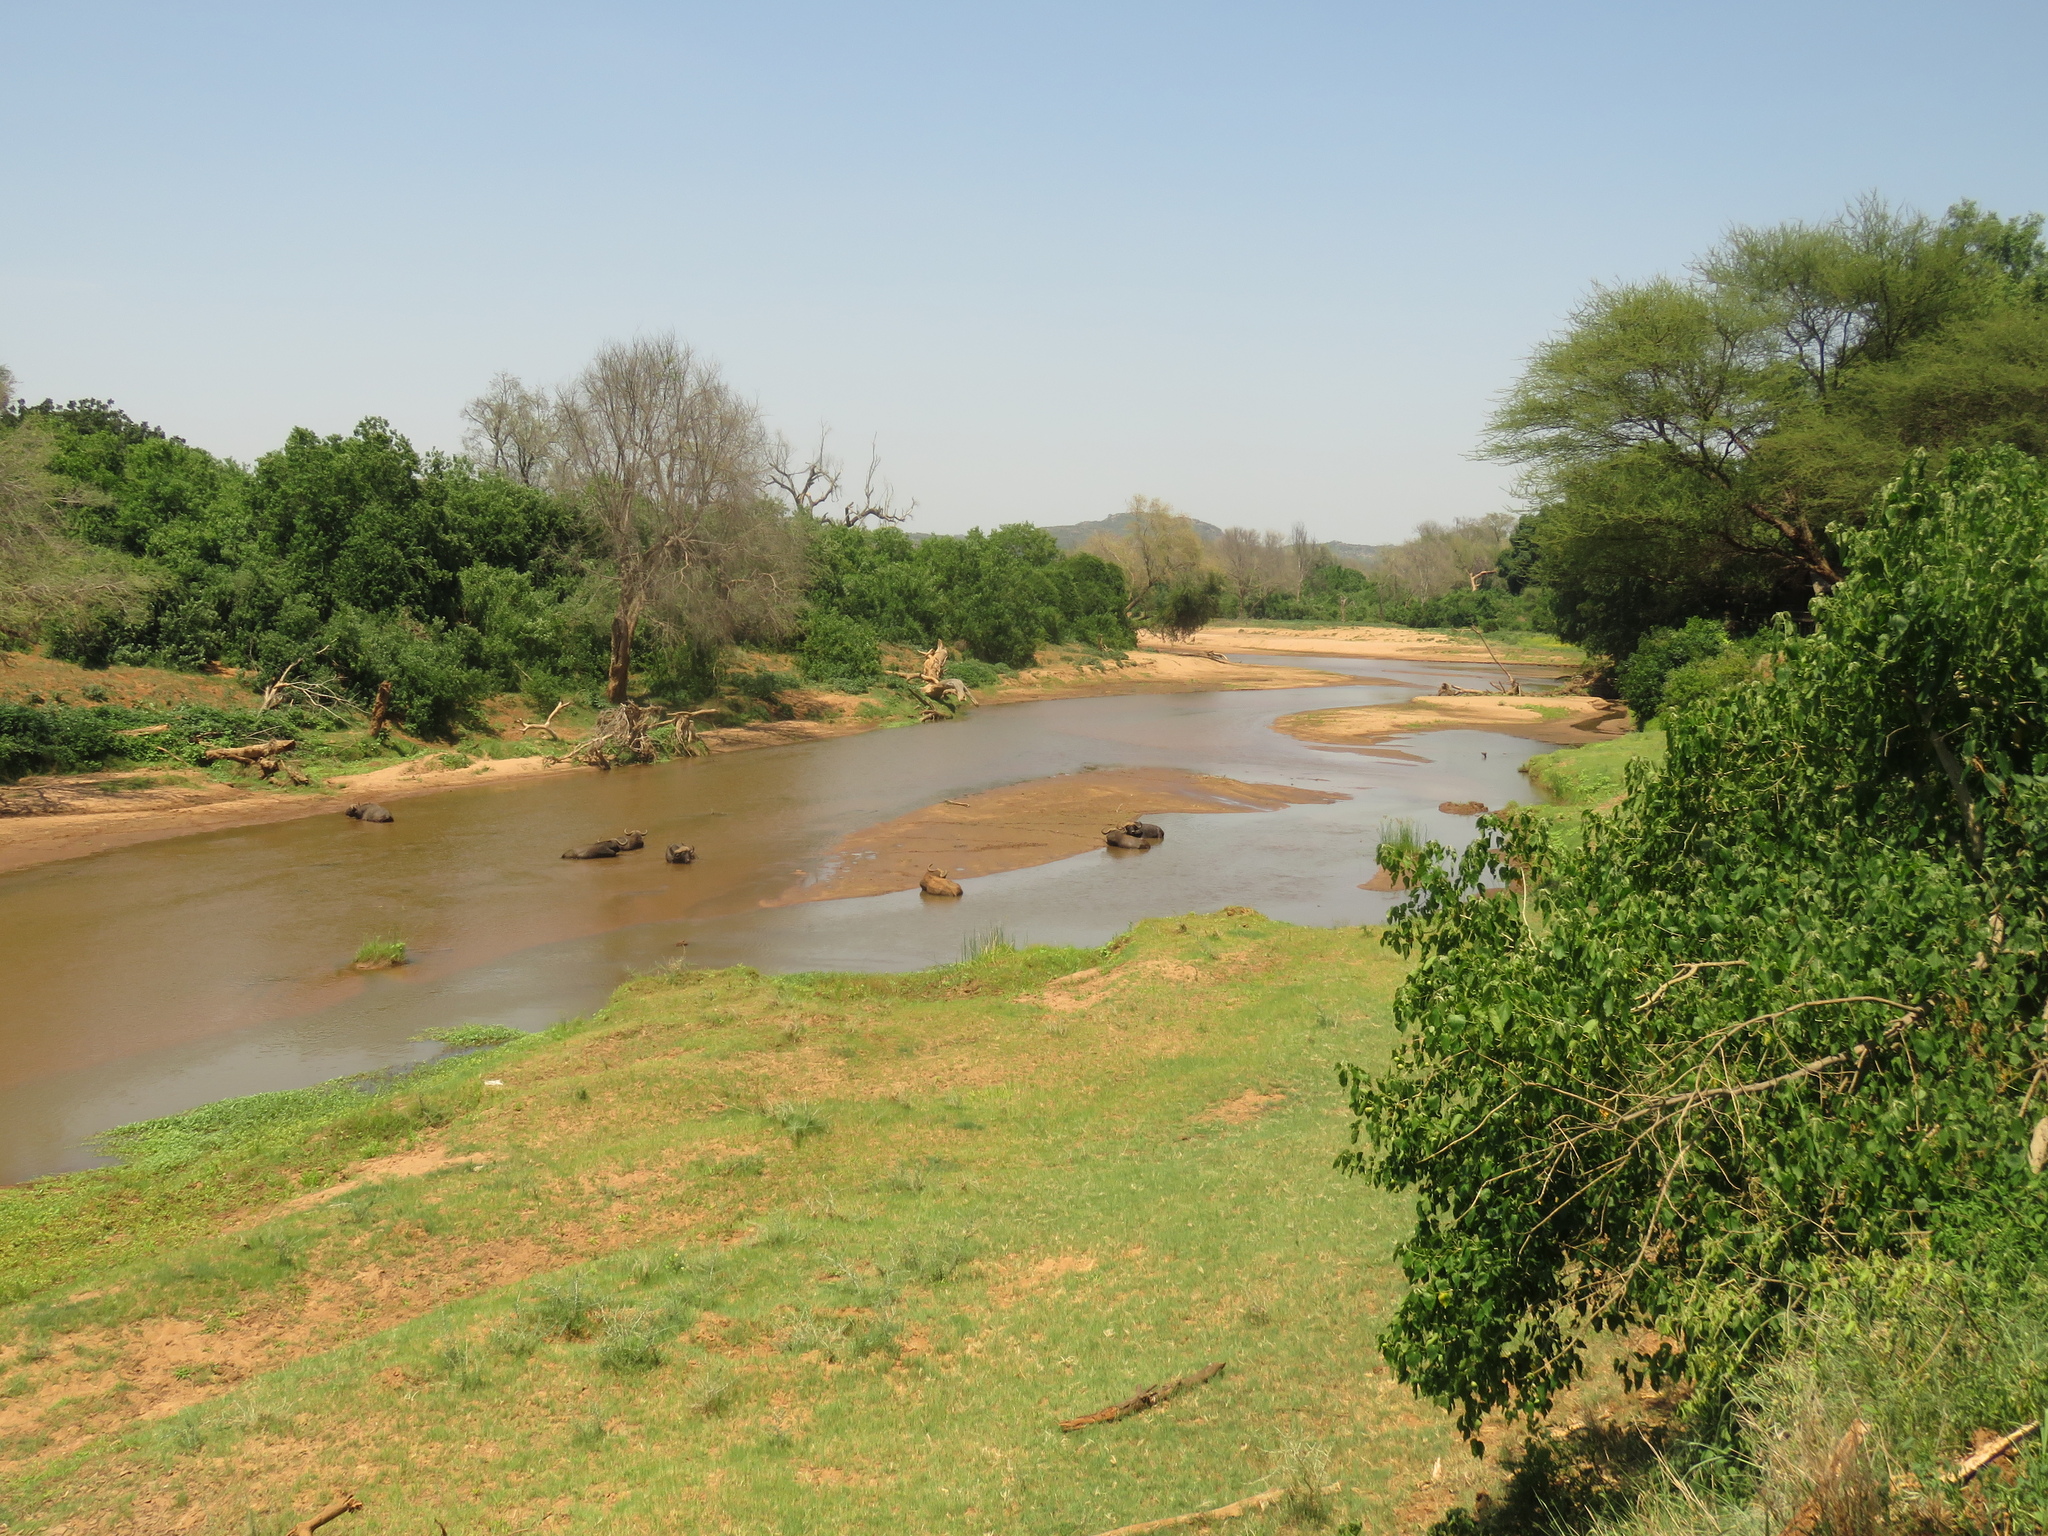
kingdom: Animalia
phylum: Chordata
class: Mammalia
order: Artiodactyla
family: Bovidae
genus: Syncerus
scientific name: Syncerus caffer
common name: African buffalo
